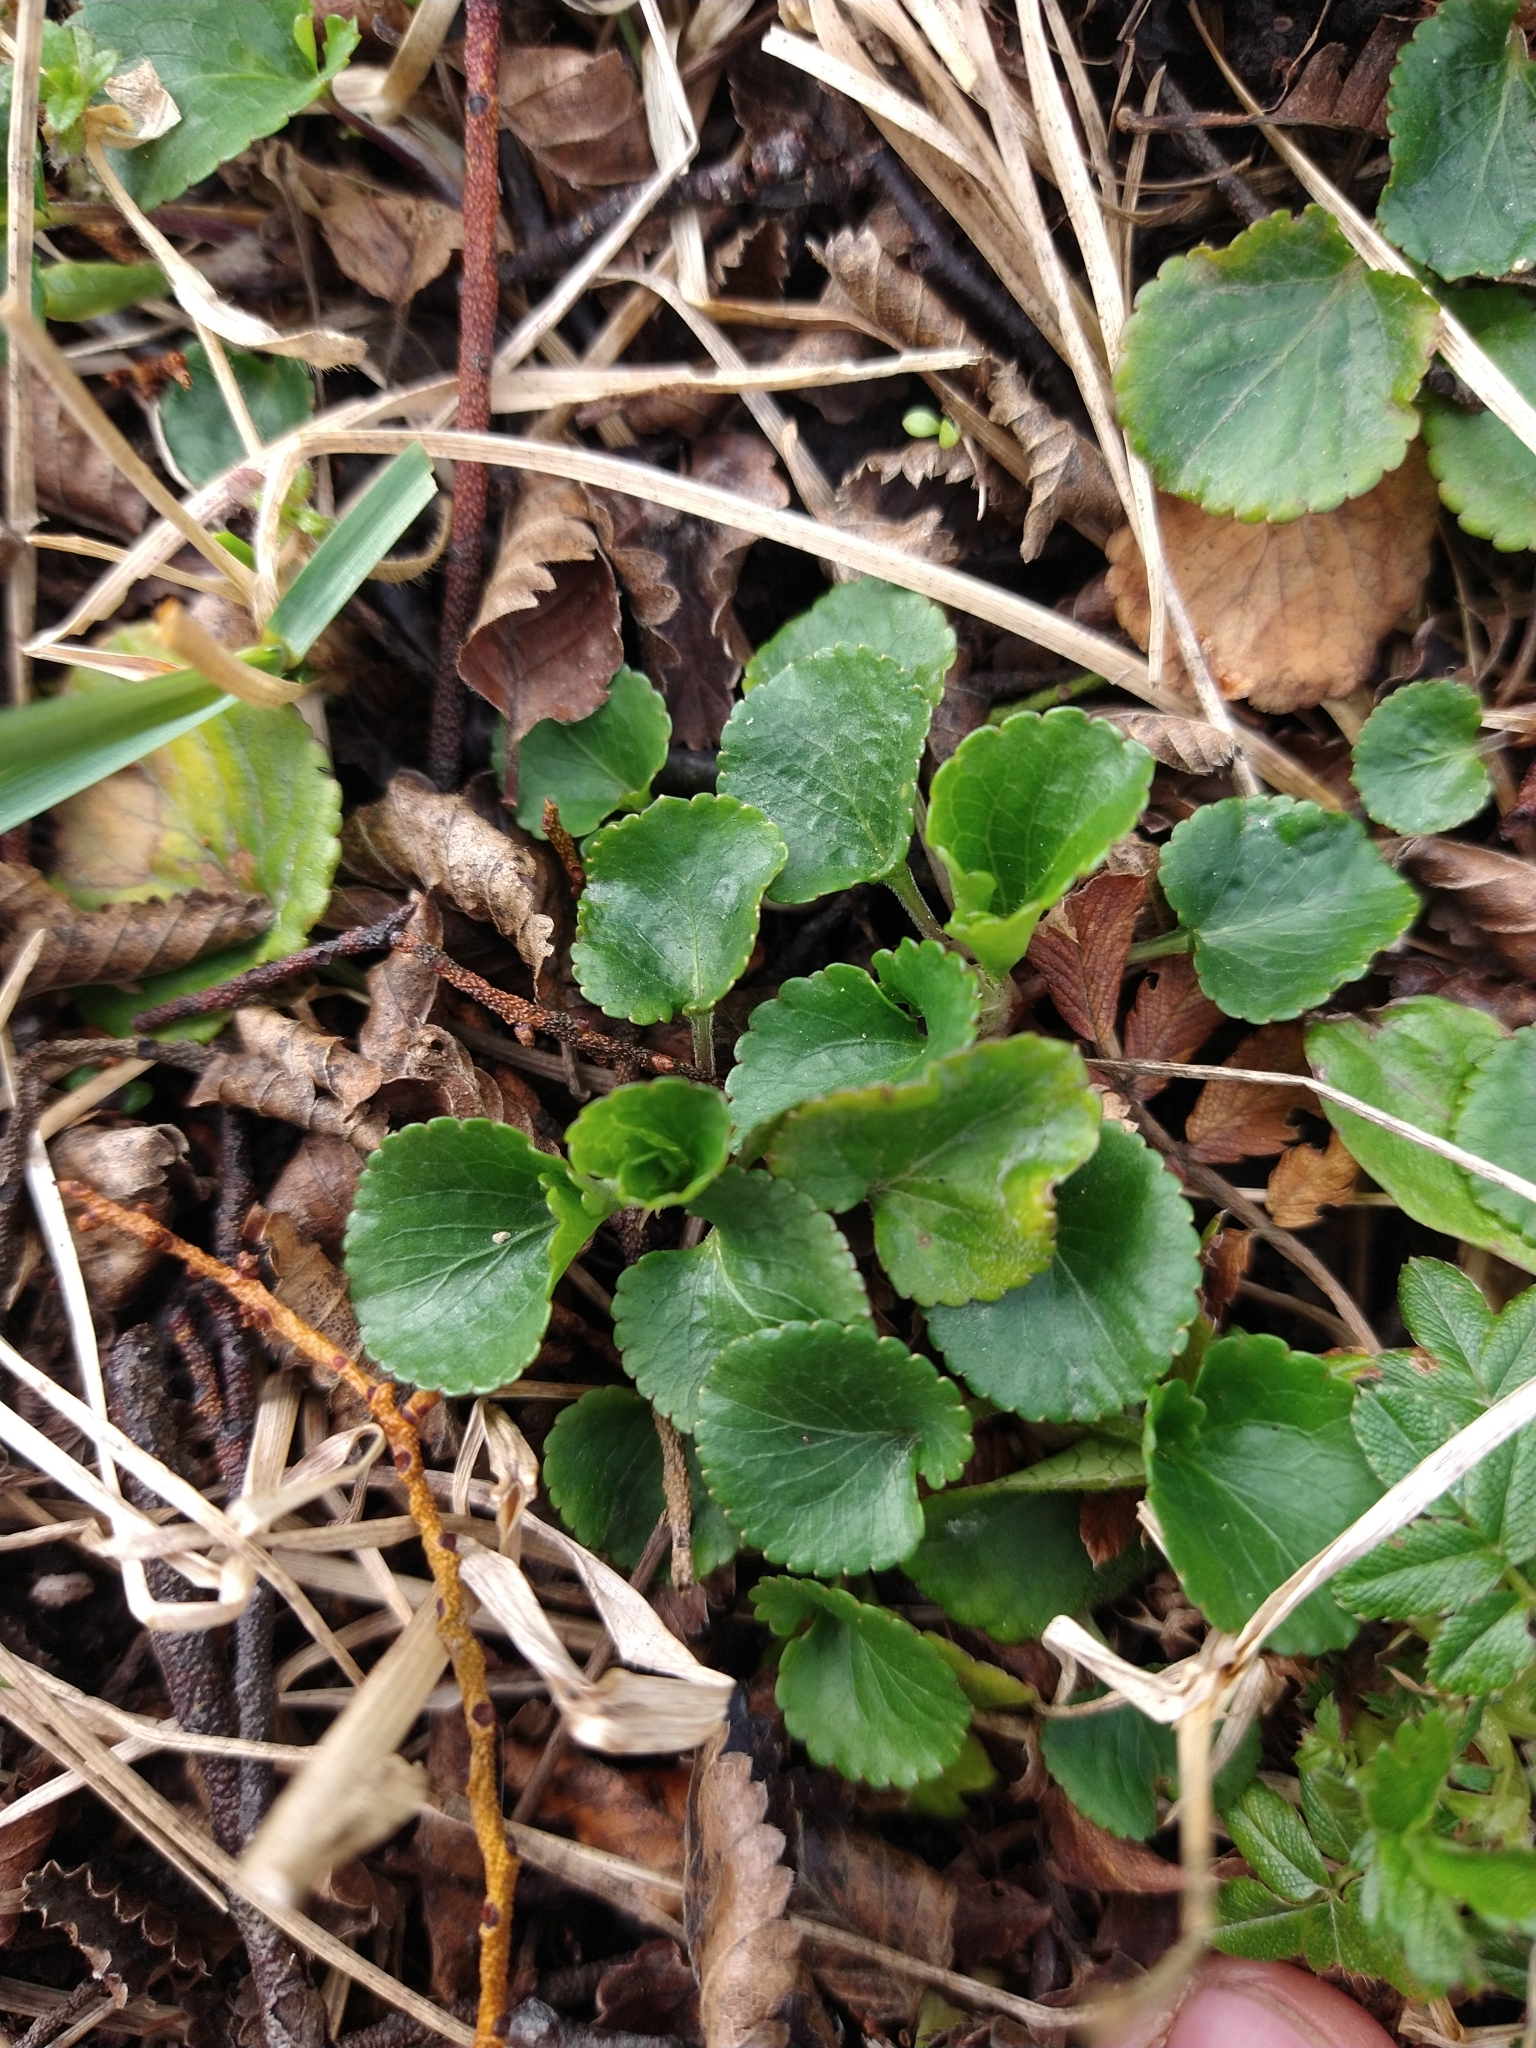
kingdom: Plantae
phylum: Tracheophyta
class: Magnoliopsida
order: Malpighiales
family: Violaceae
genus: Viola
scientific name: Viola reichei
